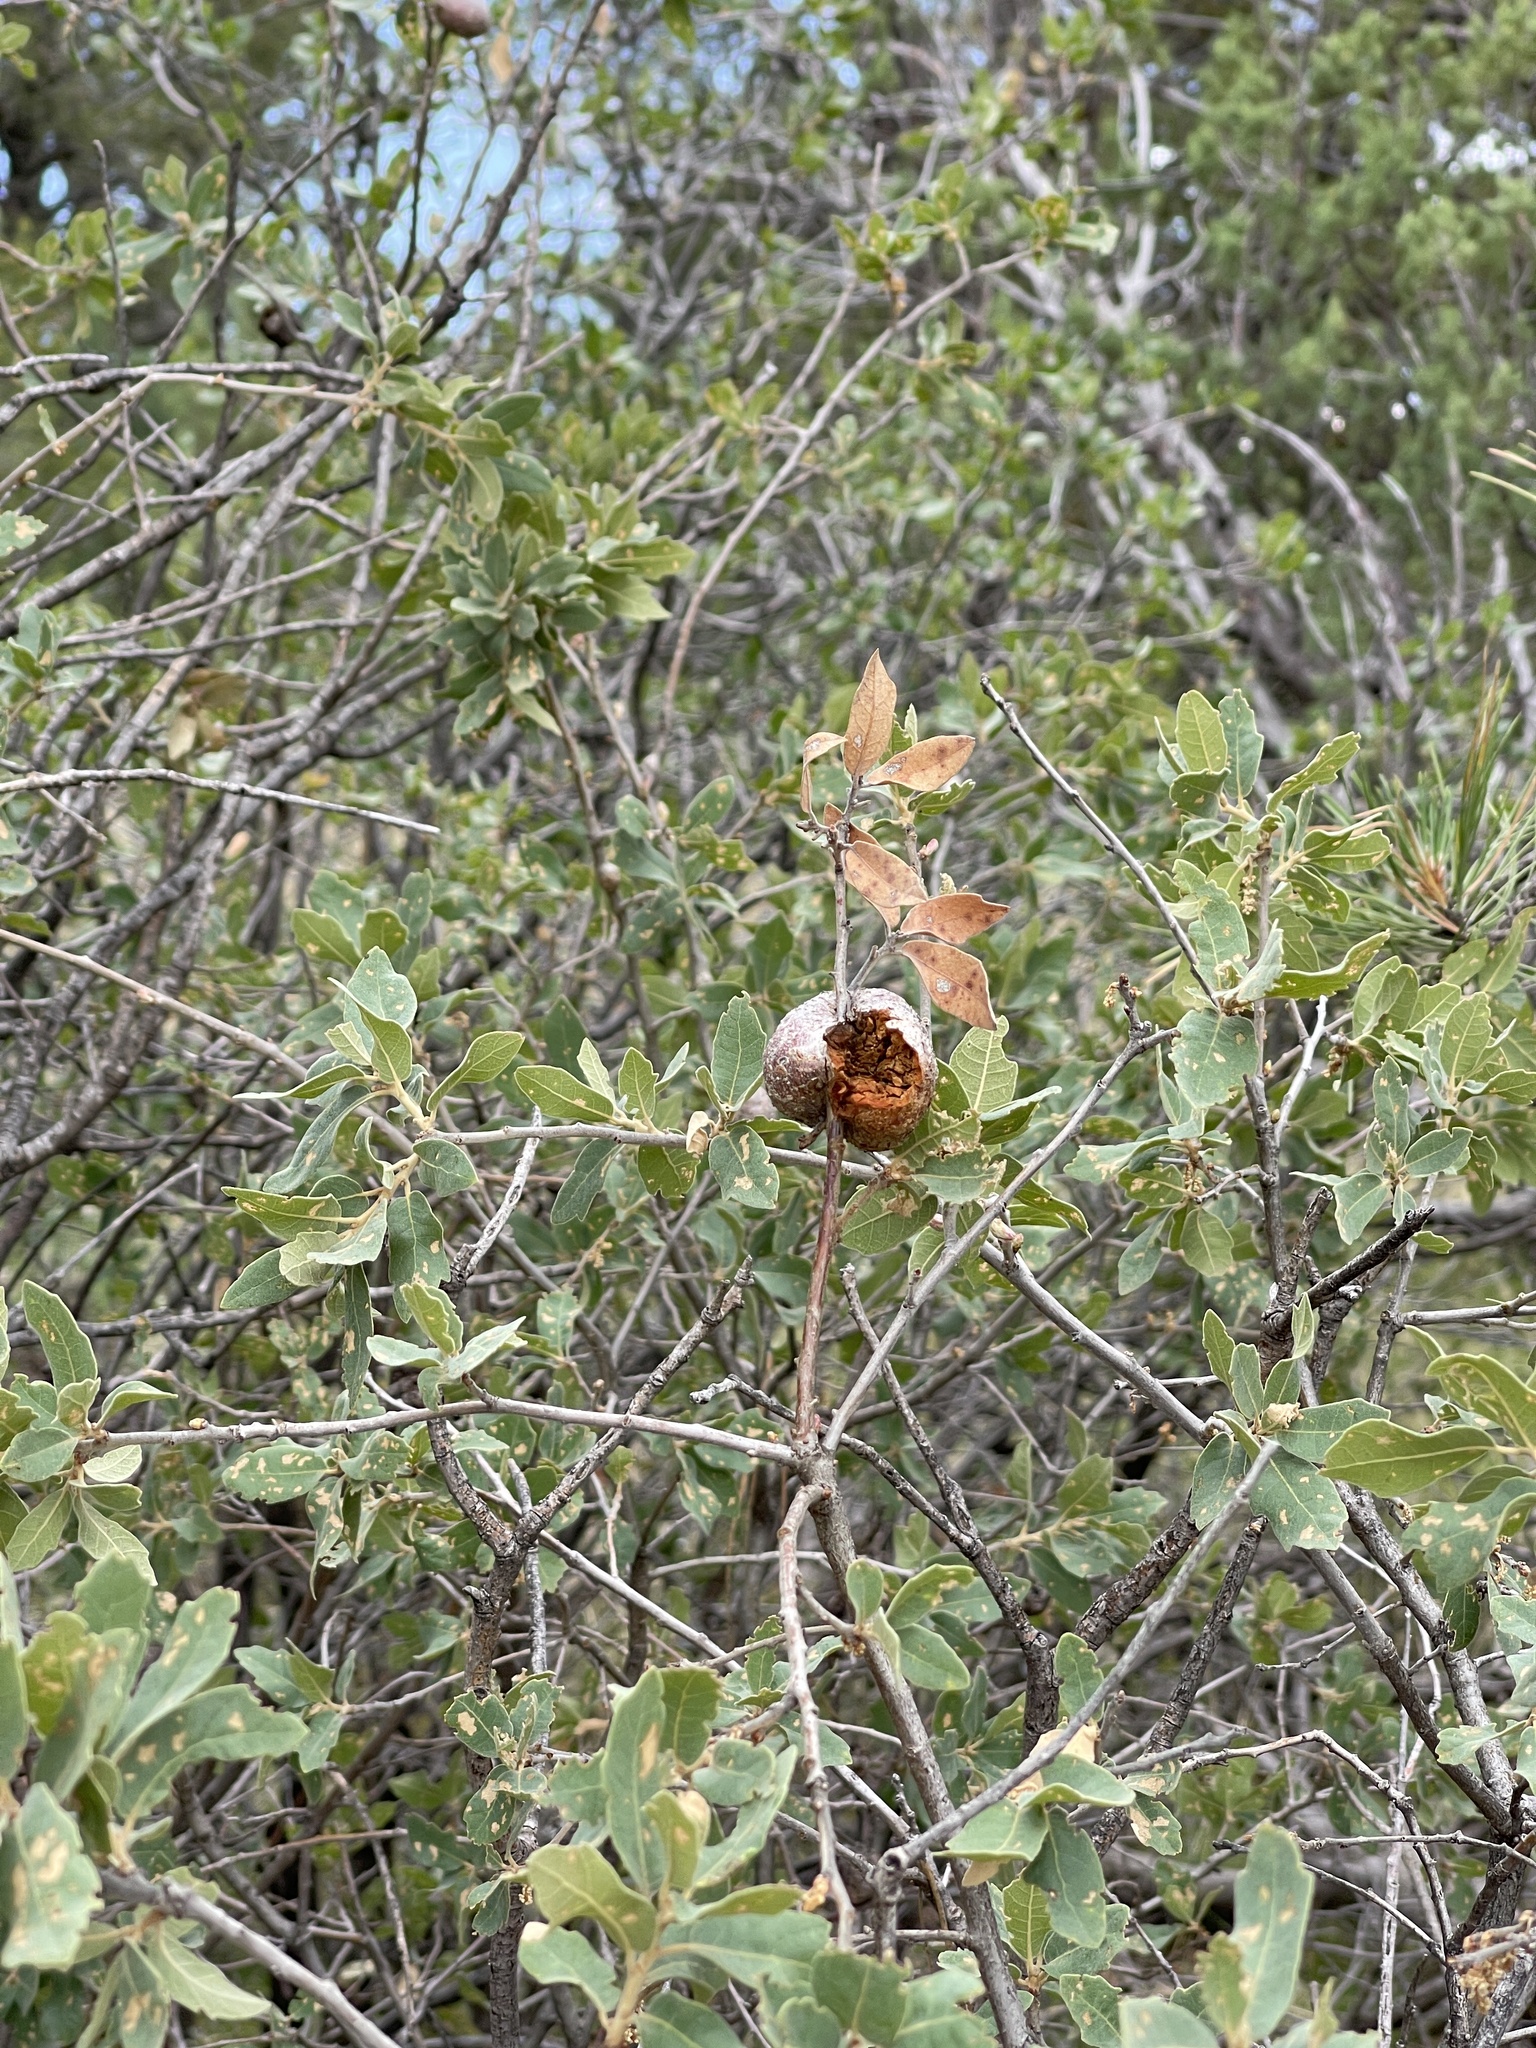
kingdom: Animalia
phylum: Arthropoda
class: Insecta
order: Hymenoptera
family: Cynipidae
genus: Andricus
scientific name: Andricus
